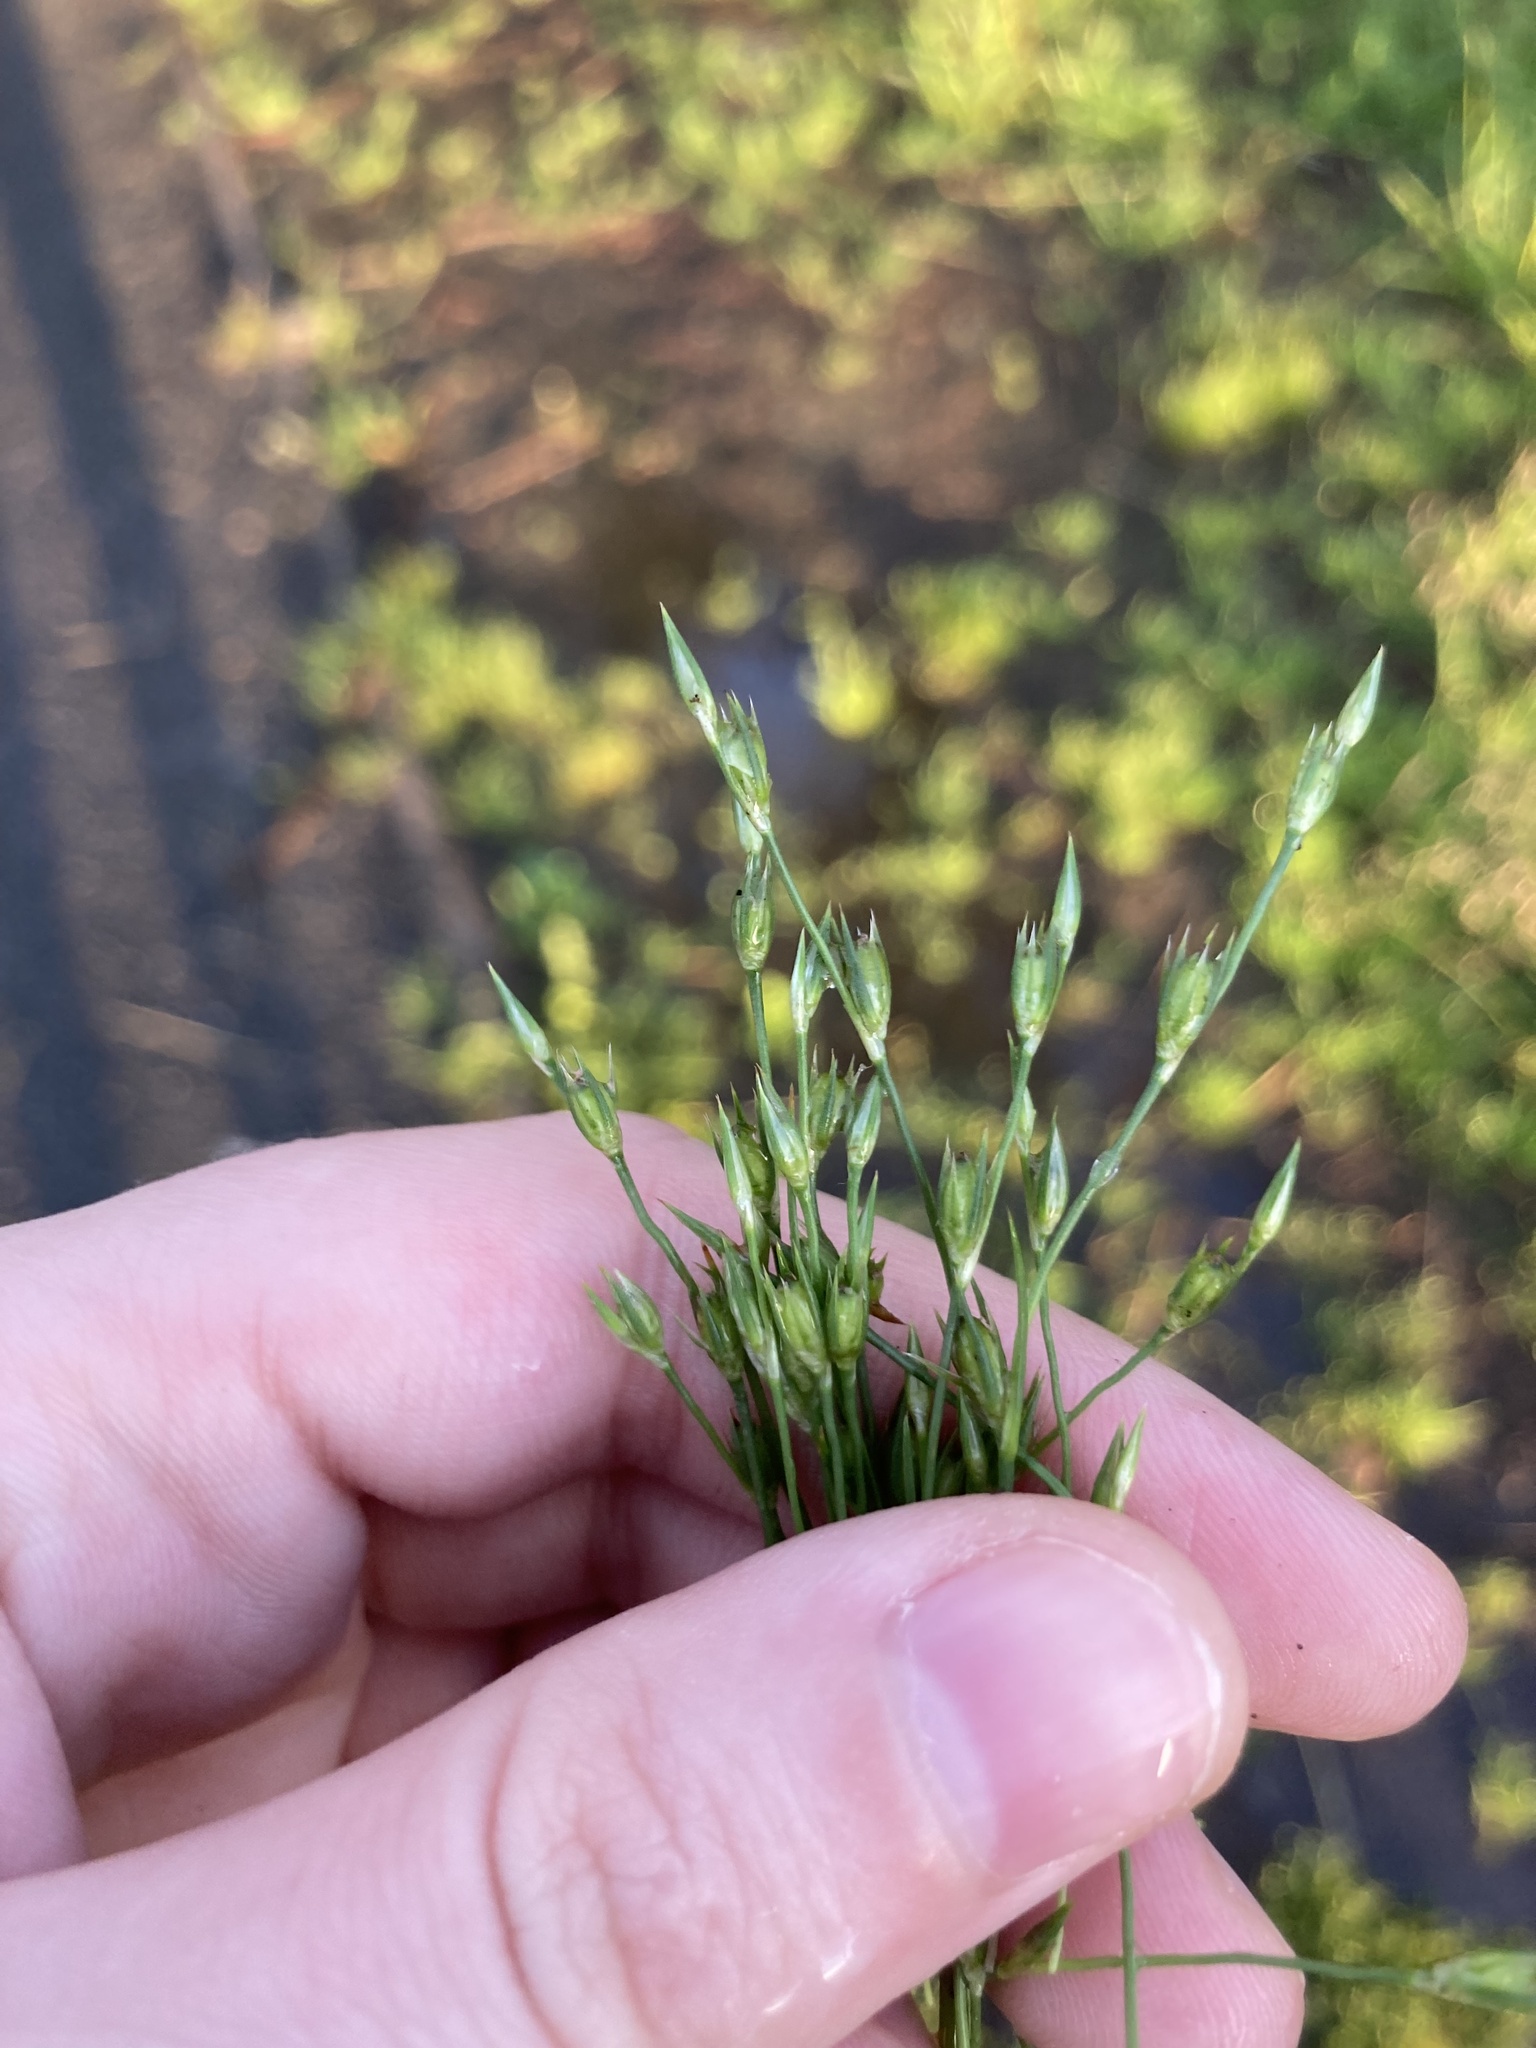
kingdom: Plantae
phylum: Tracheophyta
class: Liliopsida
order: Poales
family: Juncaceae
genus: Juncus
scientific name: Juncus bufonius
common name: Toad rush
